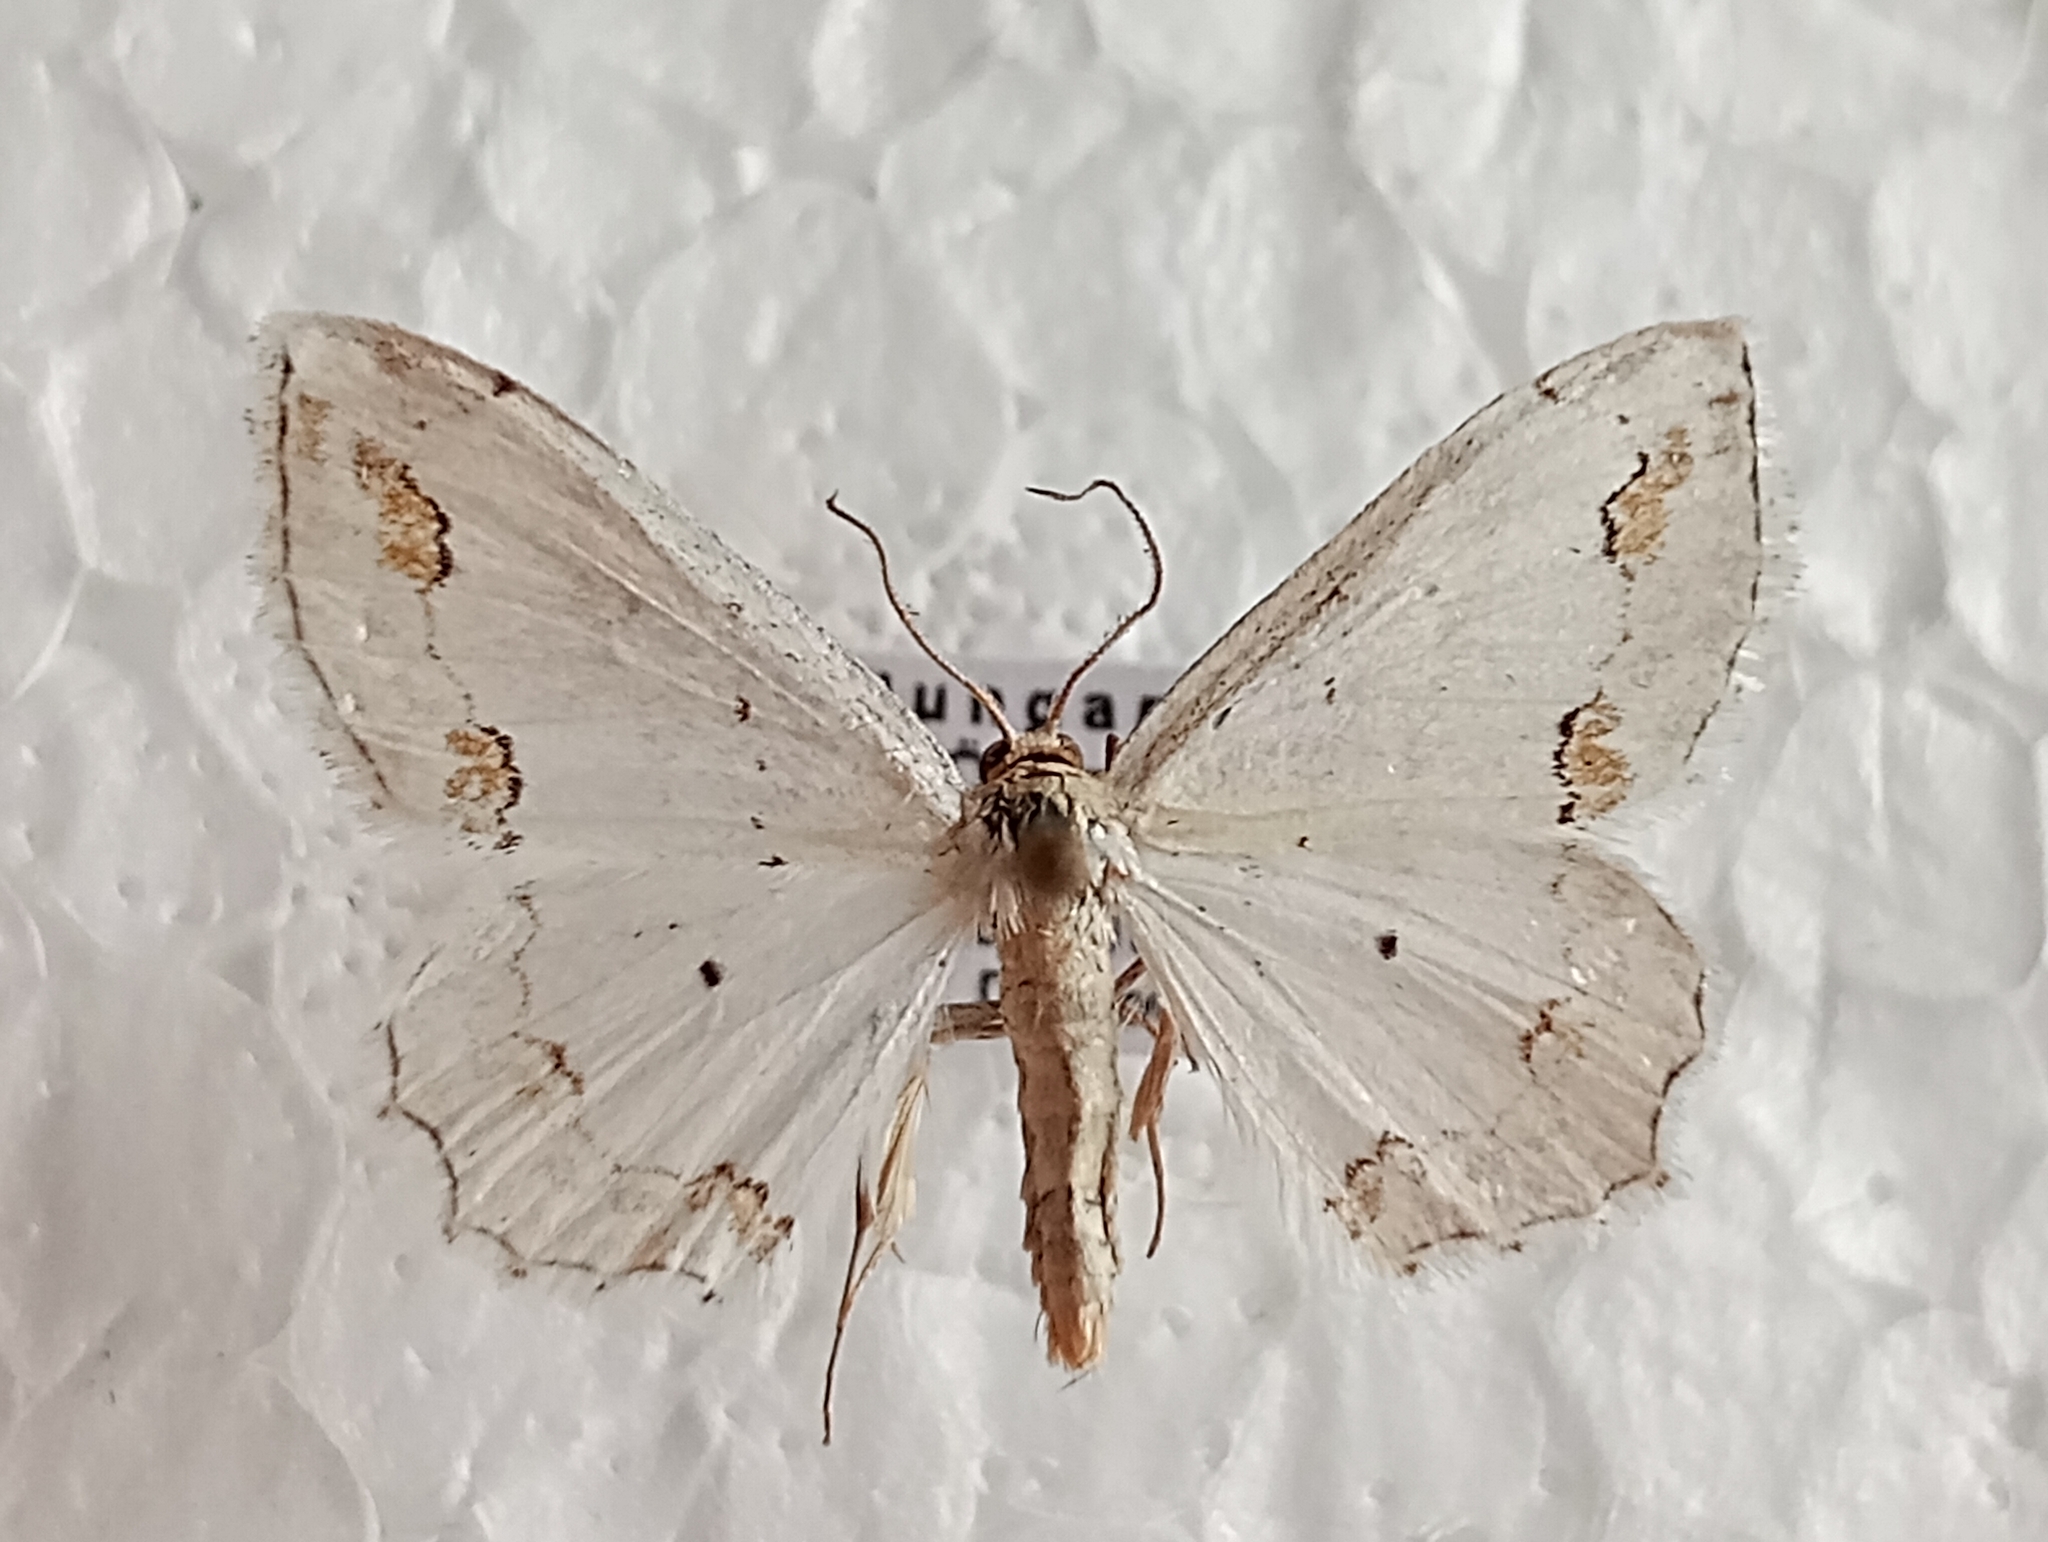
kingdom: Animalia
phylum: Arthropoda
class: Insecta
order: Lepidoptera
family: Geometridae
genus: Scopula
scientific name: Scopula ornata
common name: Lace border
